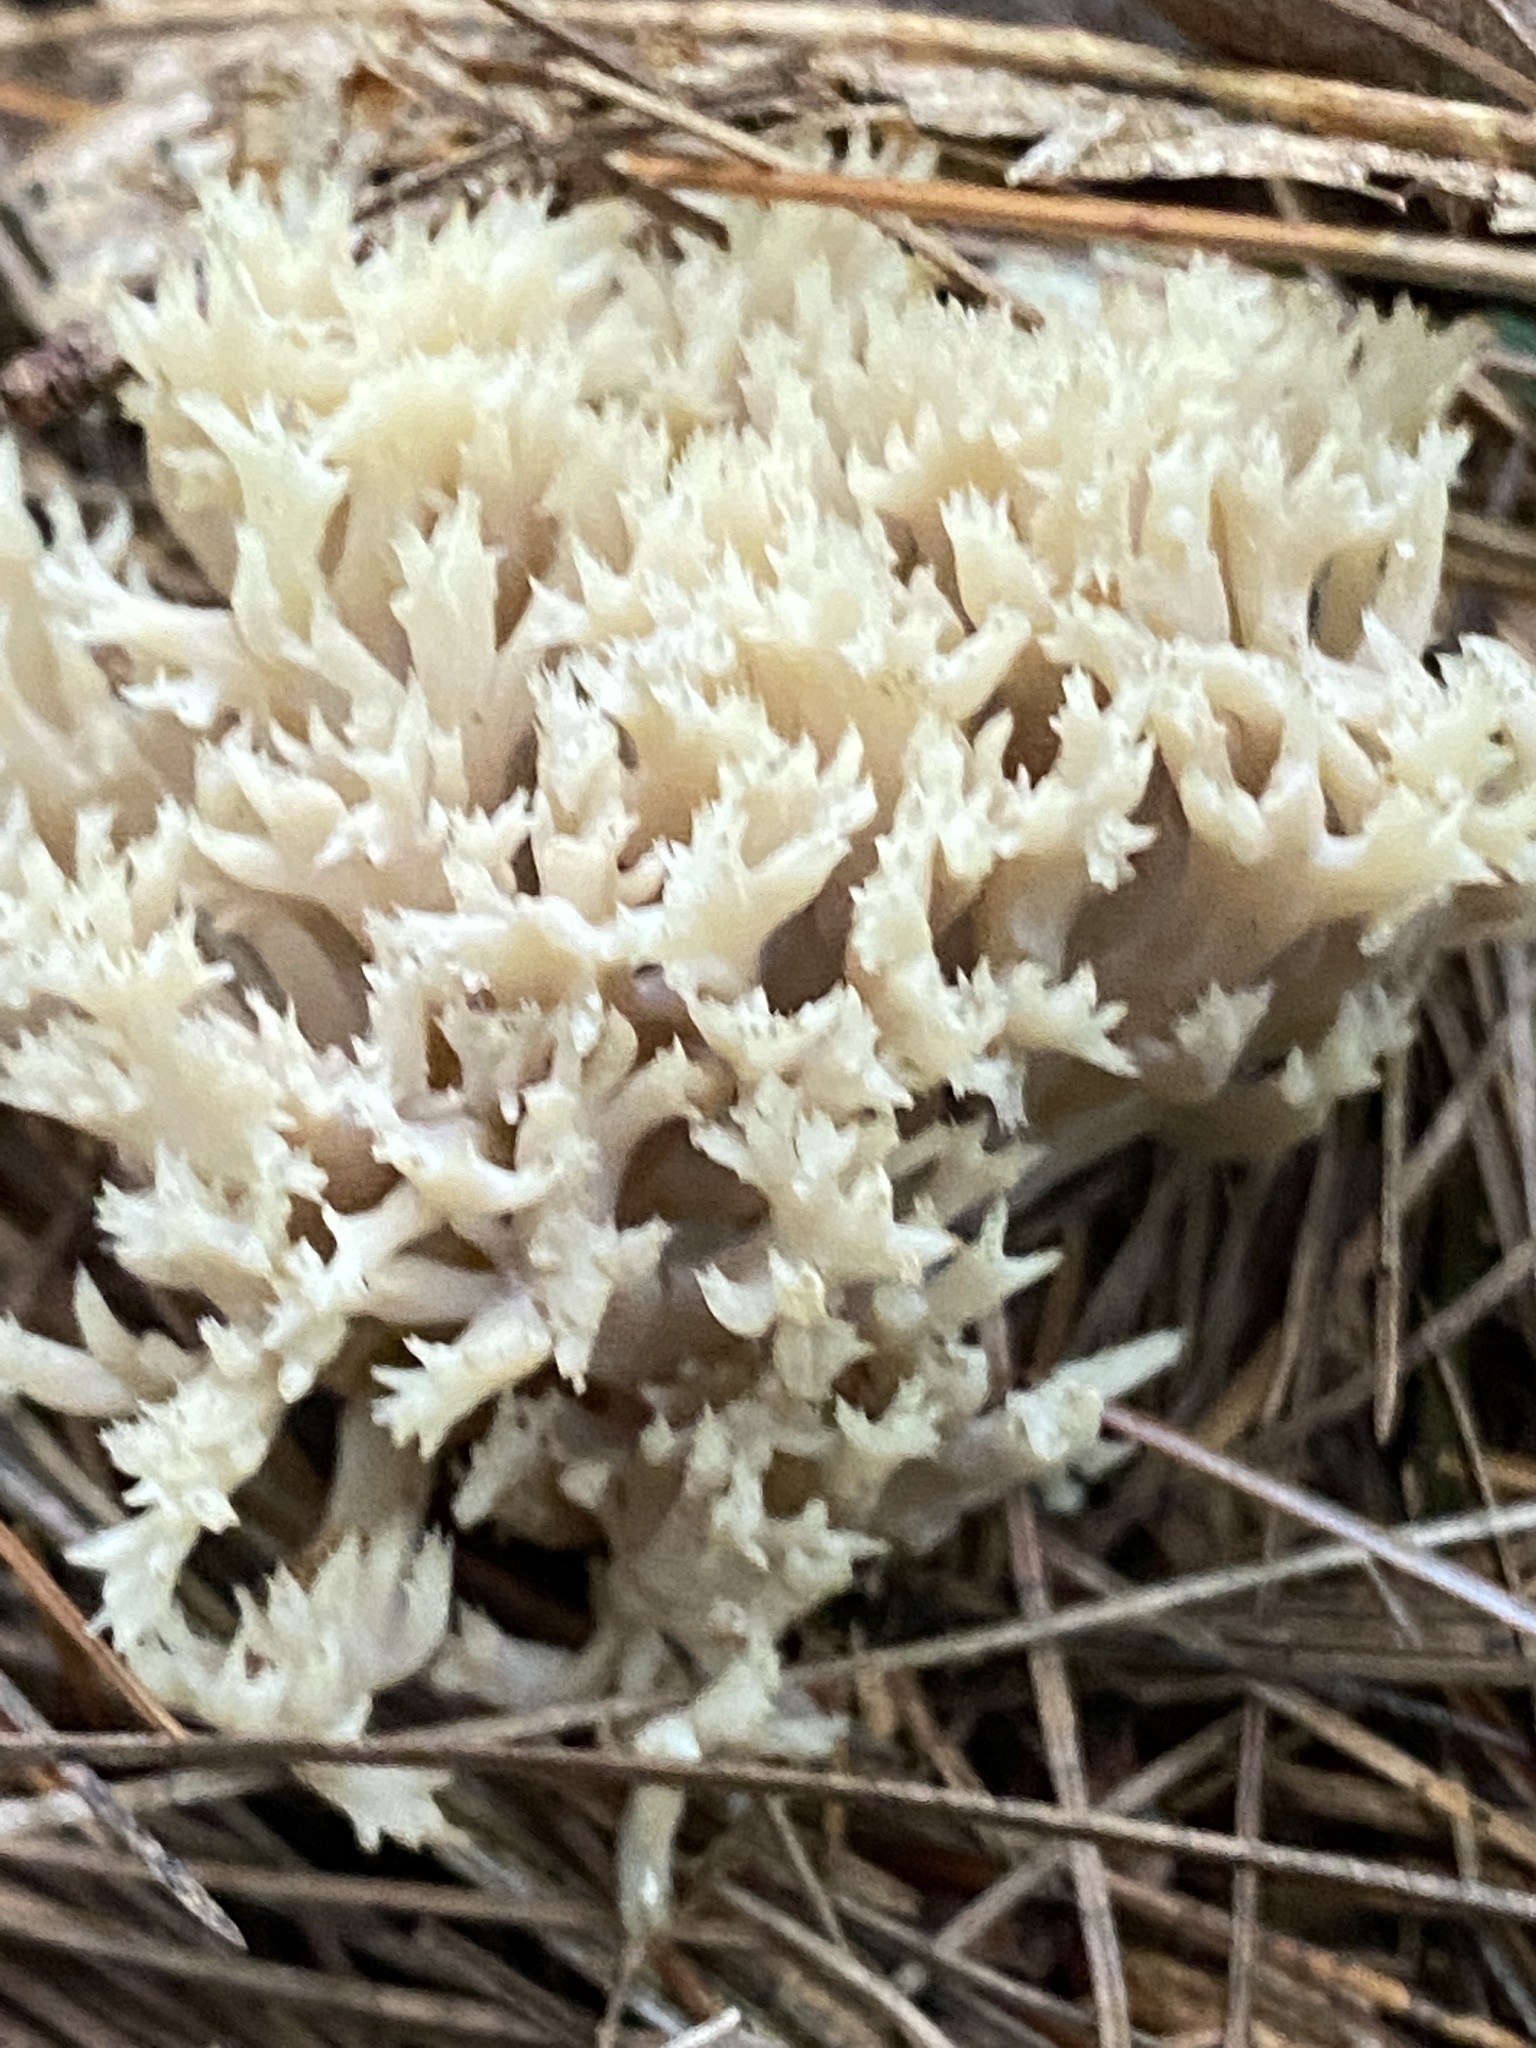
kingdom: Fungi
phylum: Basidiomycota
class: Agaricomycetes
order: Cantharellales
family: Hydnaceae
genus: Clavulina
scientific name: Clavulina coralloides
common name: Crested coral
